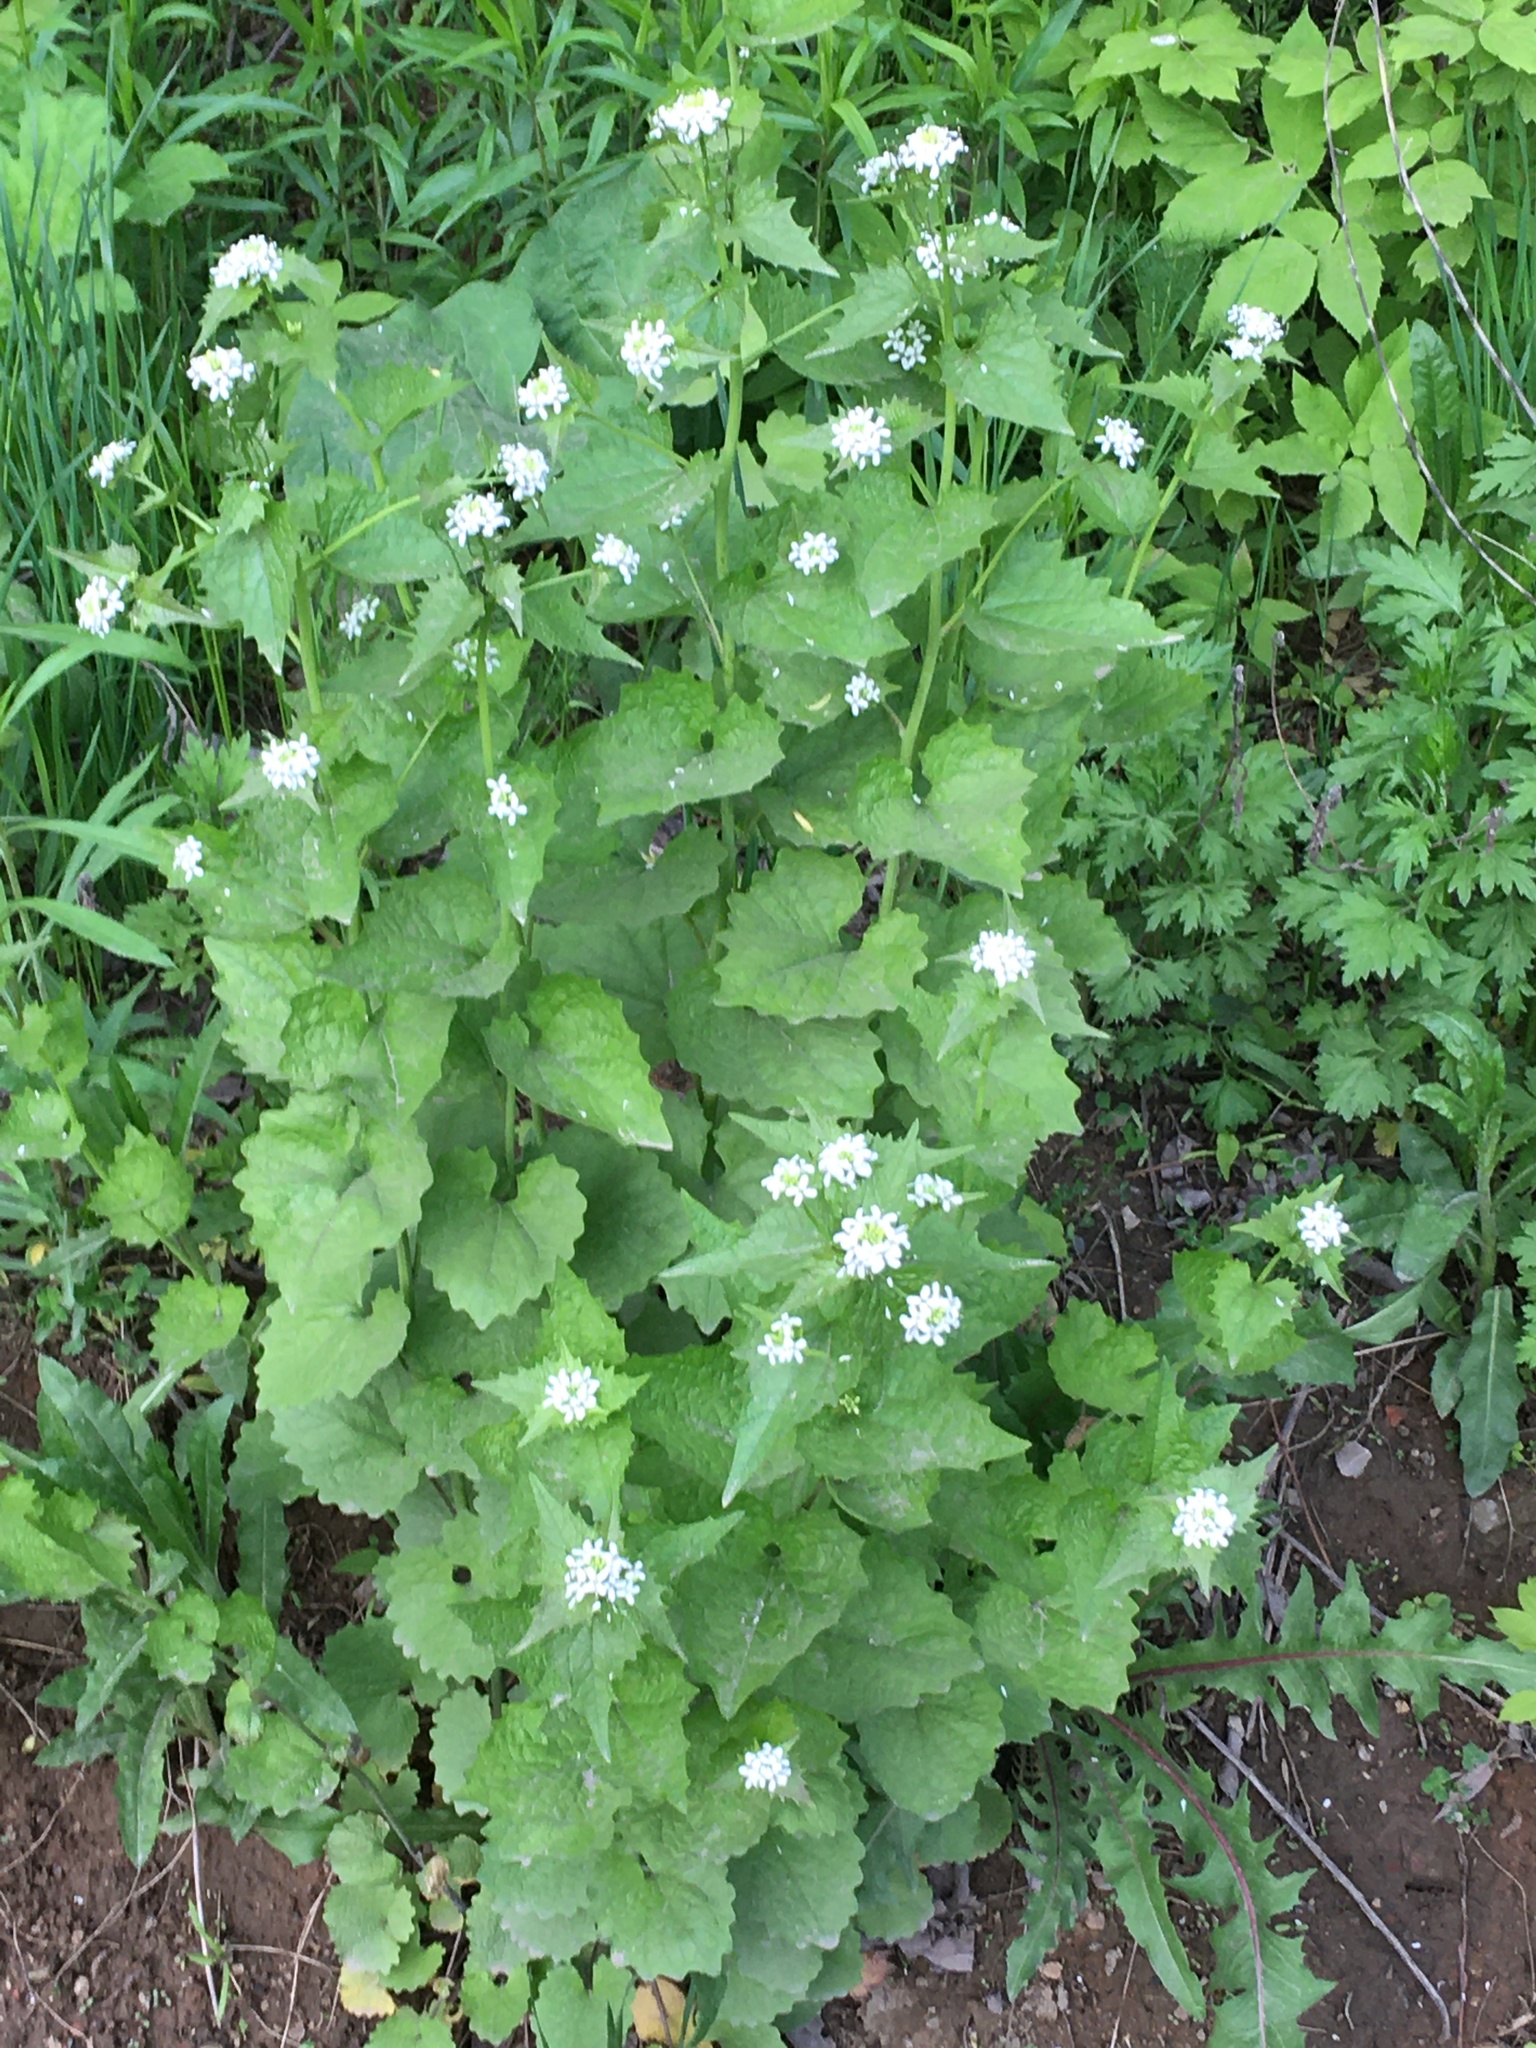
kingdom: Plantae
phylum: Tracheophyta
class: Magnoliopsida
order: Brassicales
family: Brassicaceae
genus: Alliaria
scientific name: Alliaria petiolata
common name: Garlic mustard
